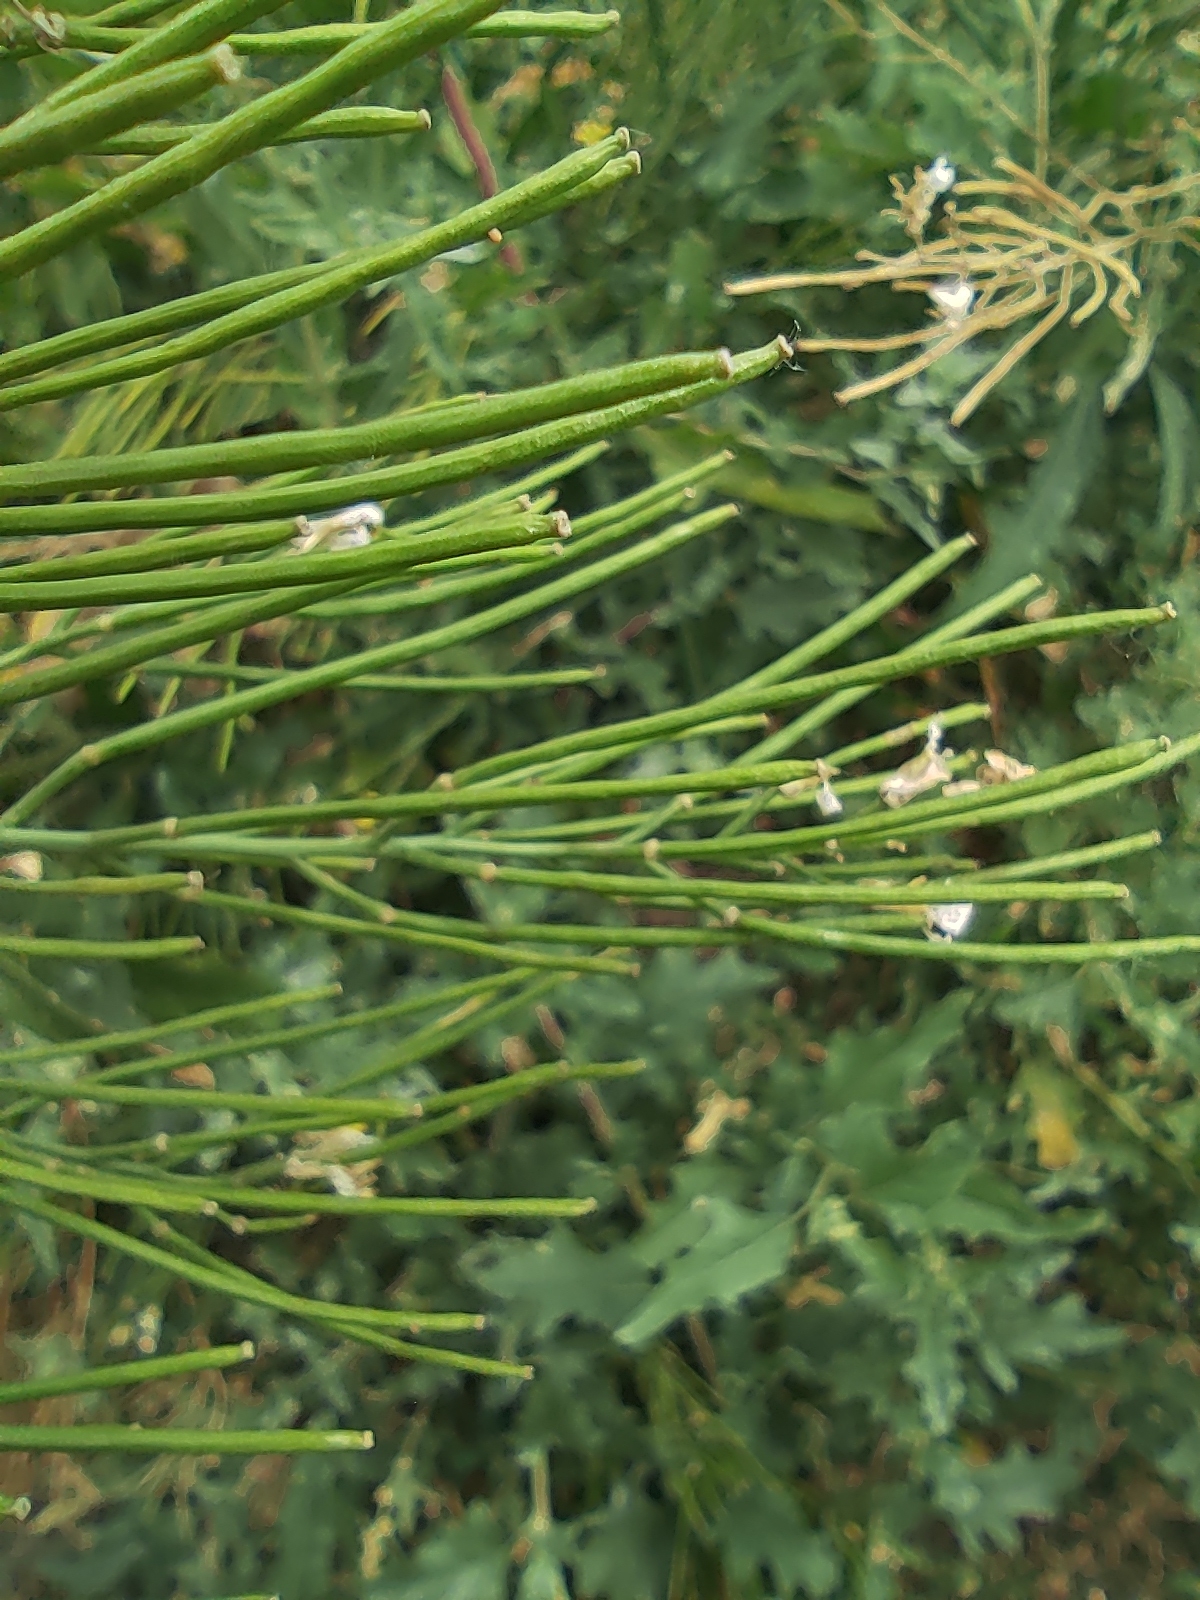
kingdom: Plantae
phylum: Tracheophyta
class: Magnoliopsida
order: Brassicales
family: Brassicaceae
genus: Sisymbrium
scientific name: Sisymbrium volgense
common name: Russian mustard
